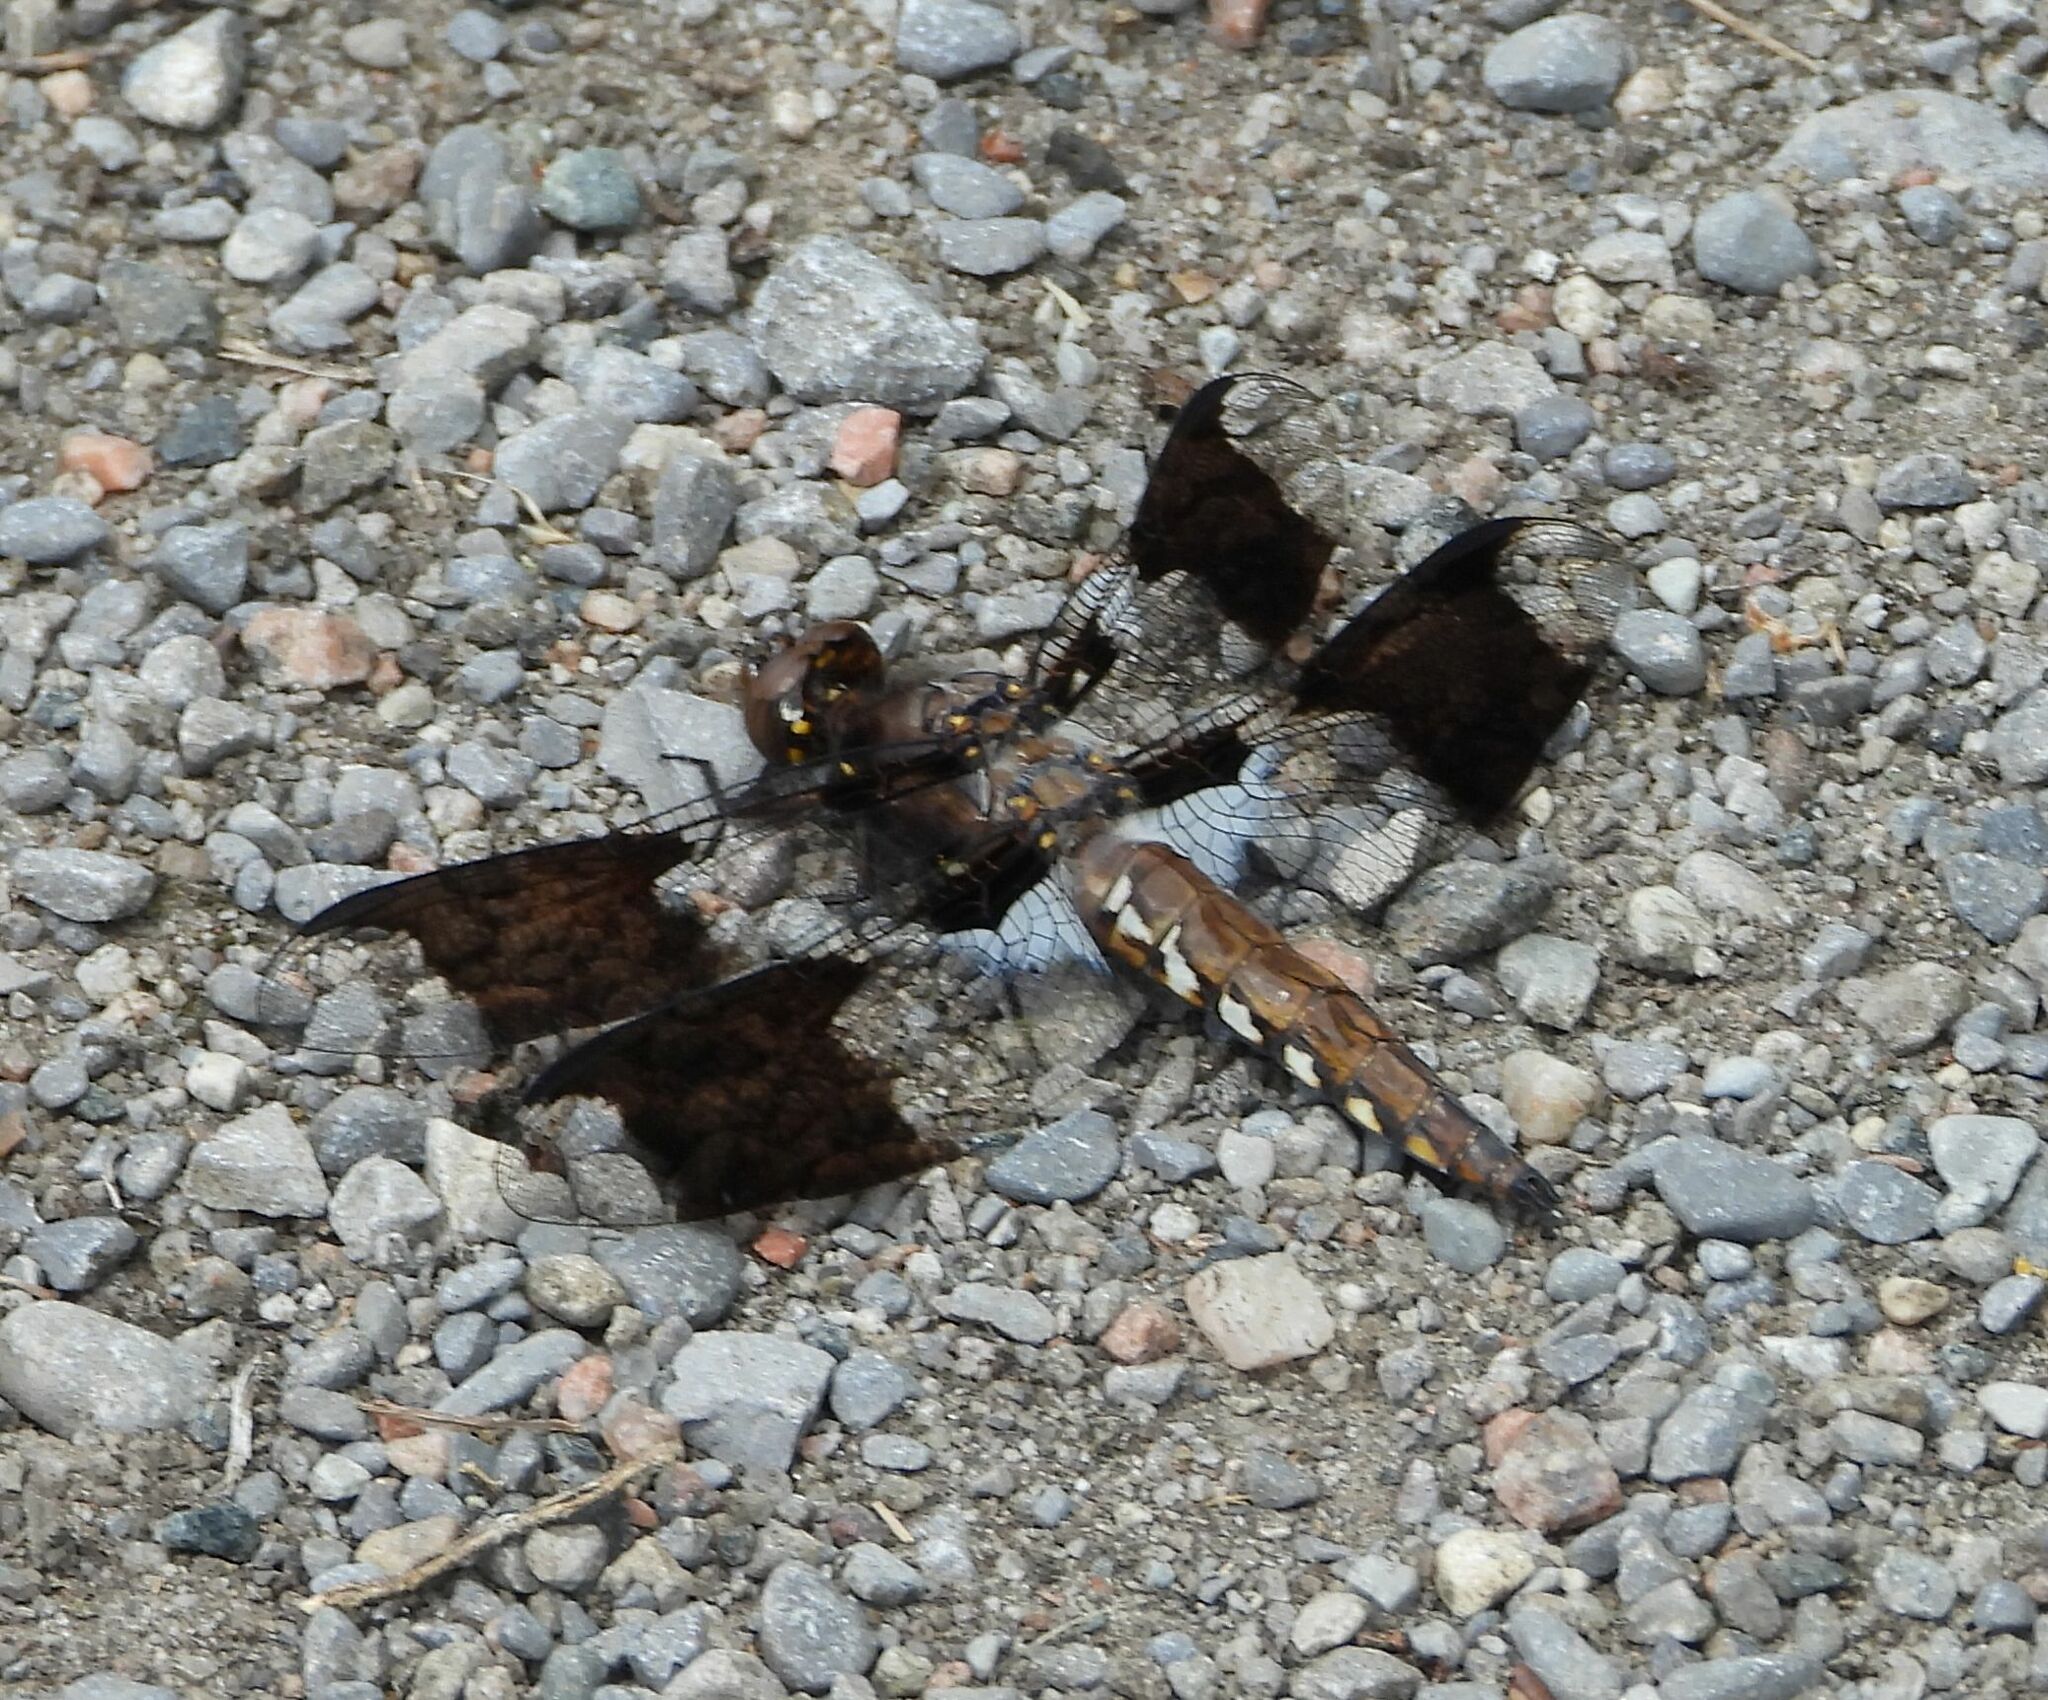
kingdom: Animalia
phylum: Arthropoda
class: Insecta
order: Odonata
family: Libellulidae
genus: Plathemis
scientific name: Plathemis lydia
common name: Common whitetail
